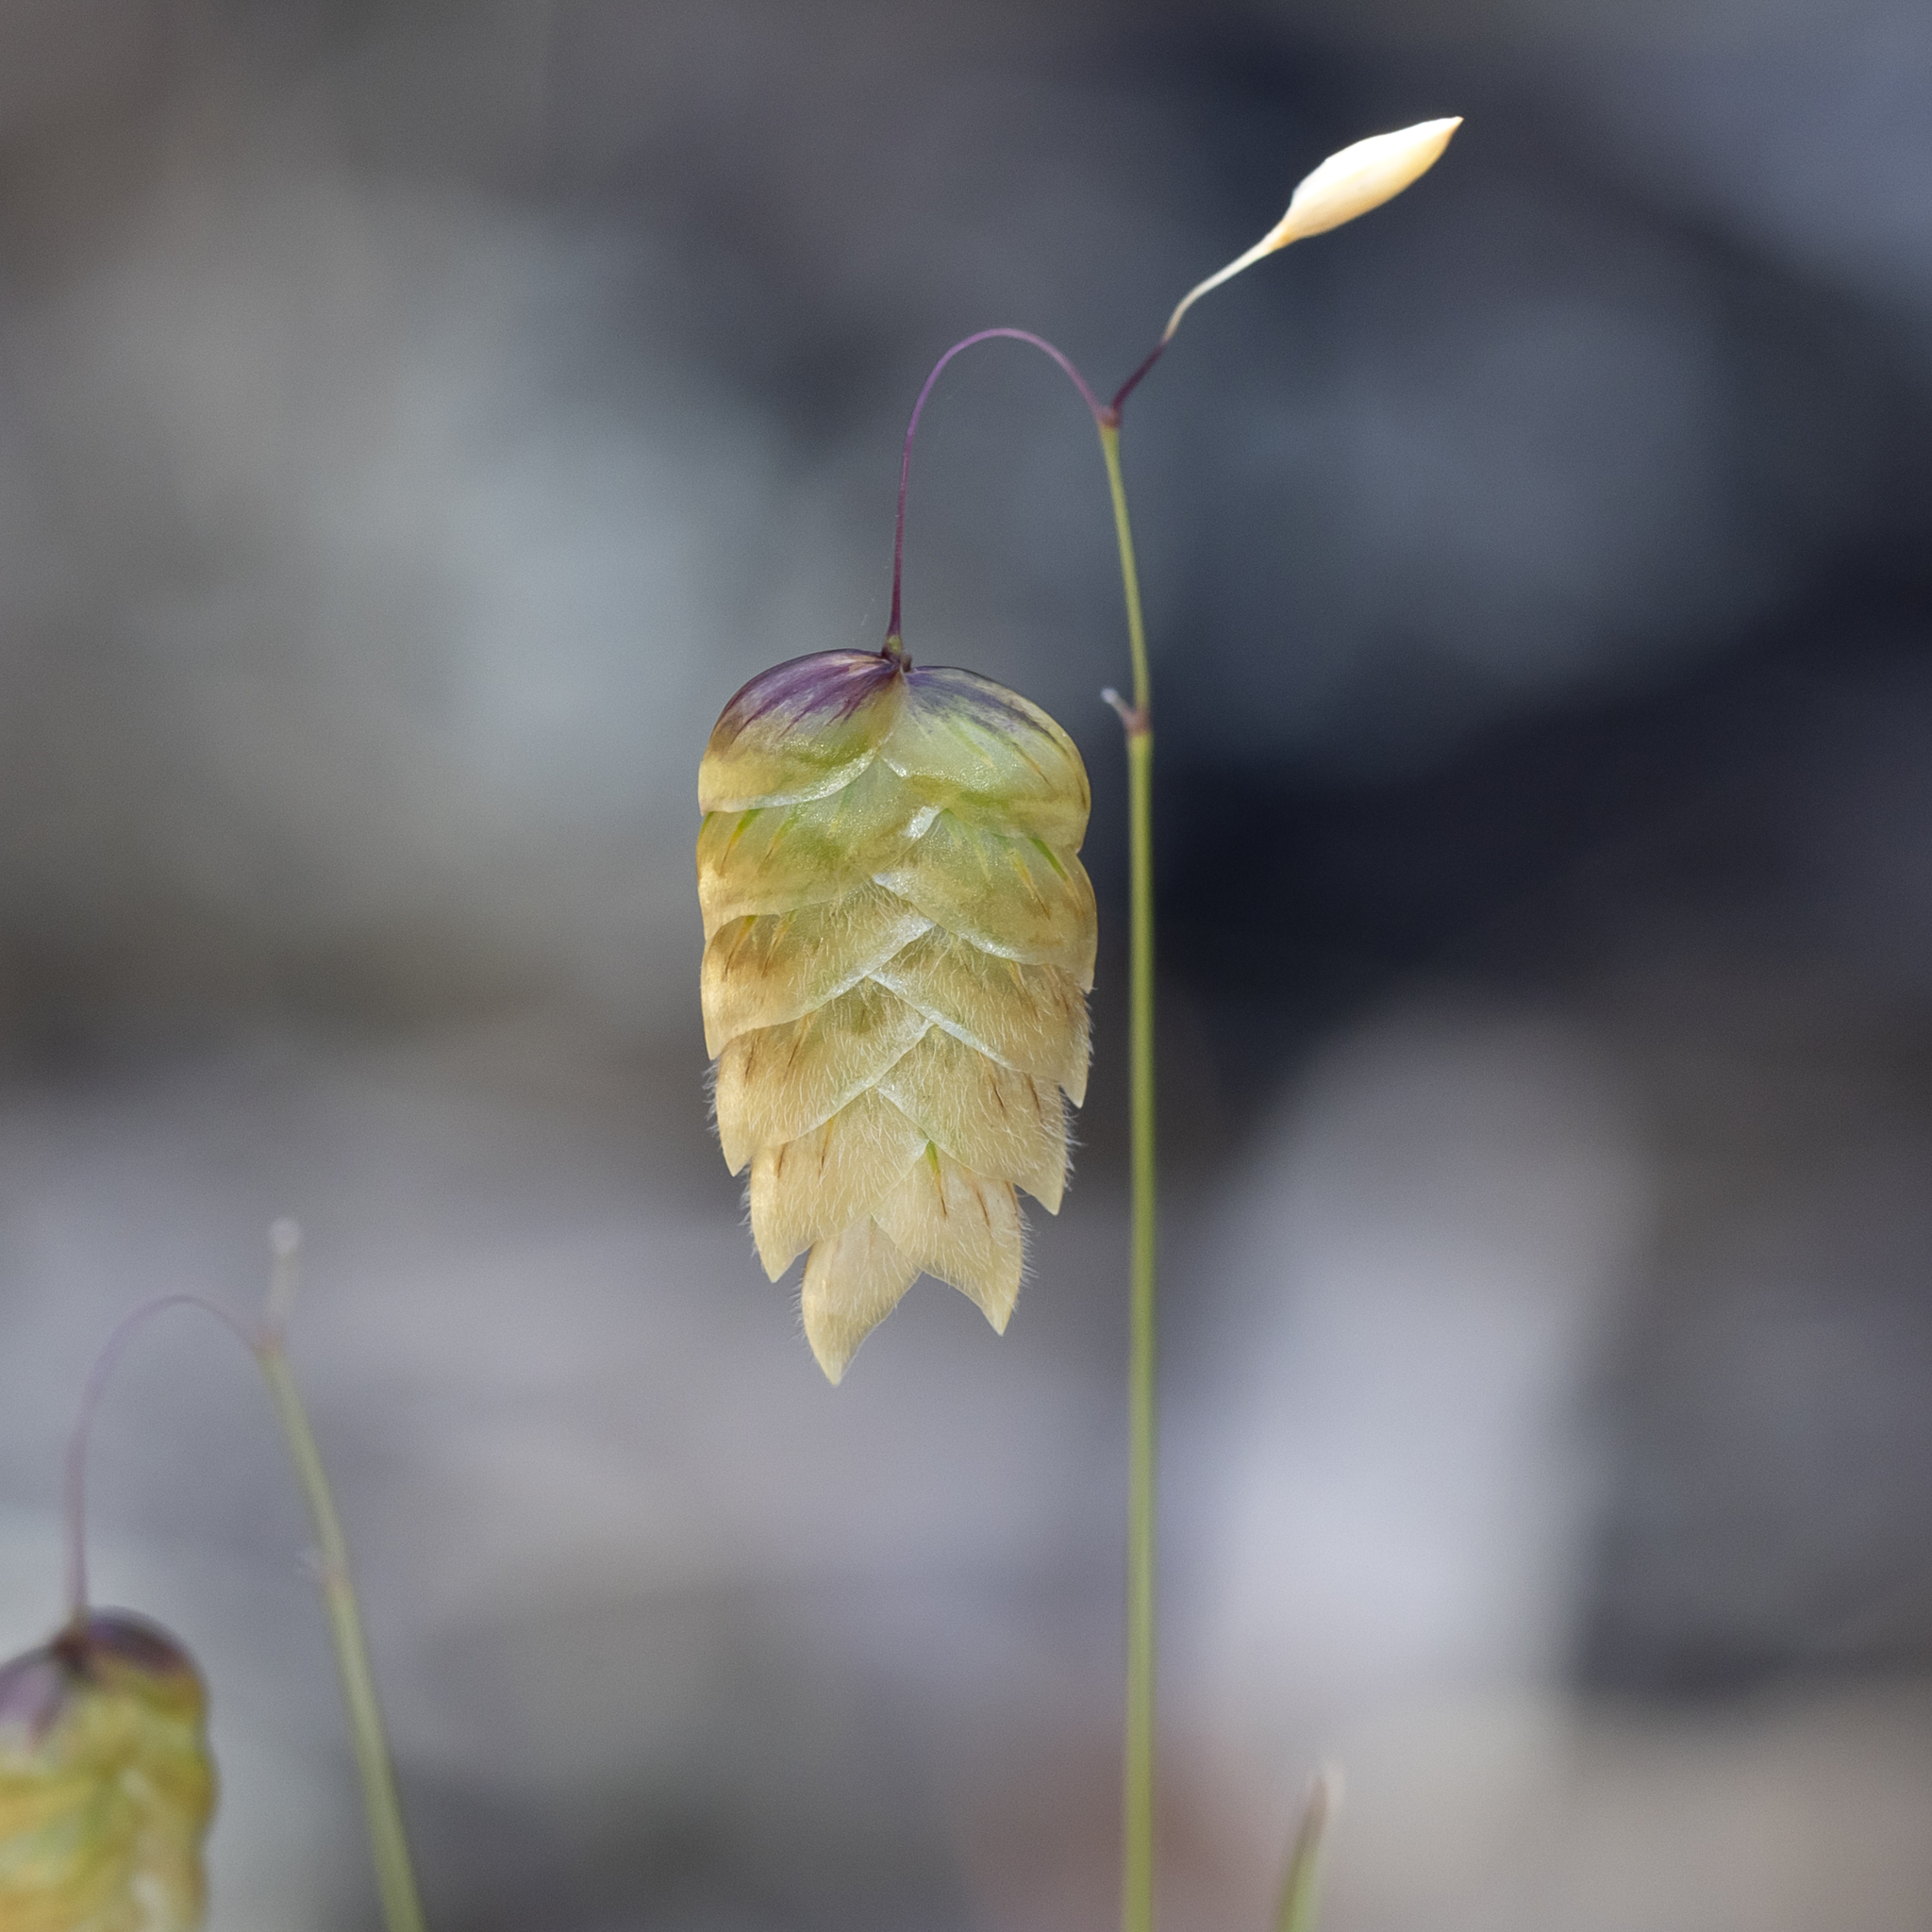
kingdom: Plantae
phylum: Tracheophyta
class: Liliopsida
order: Poales
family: Poaceae
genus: Briza
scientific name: Briza maxima
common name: Big quakinggrass
